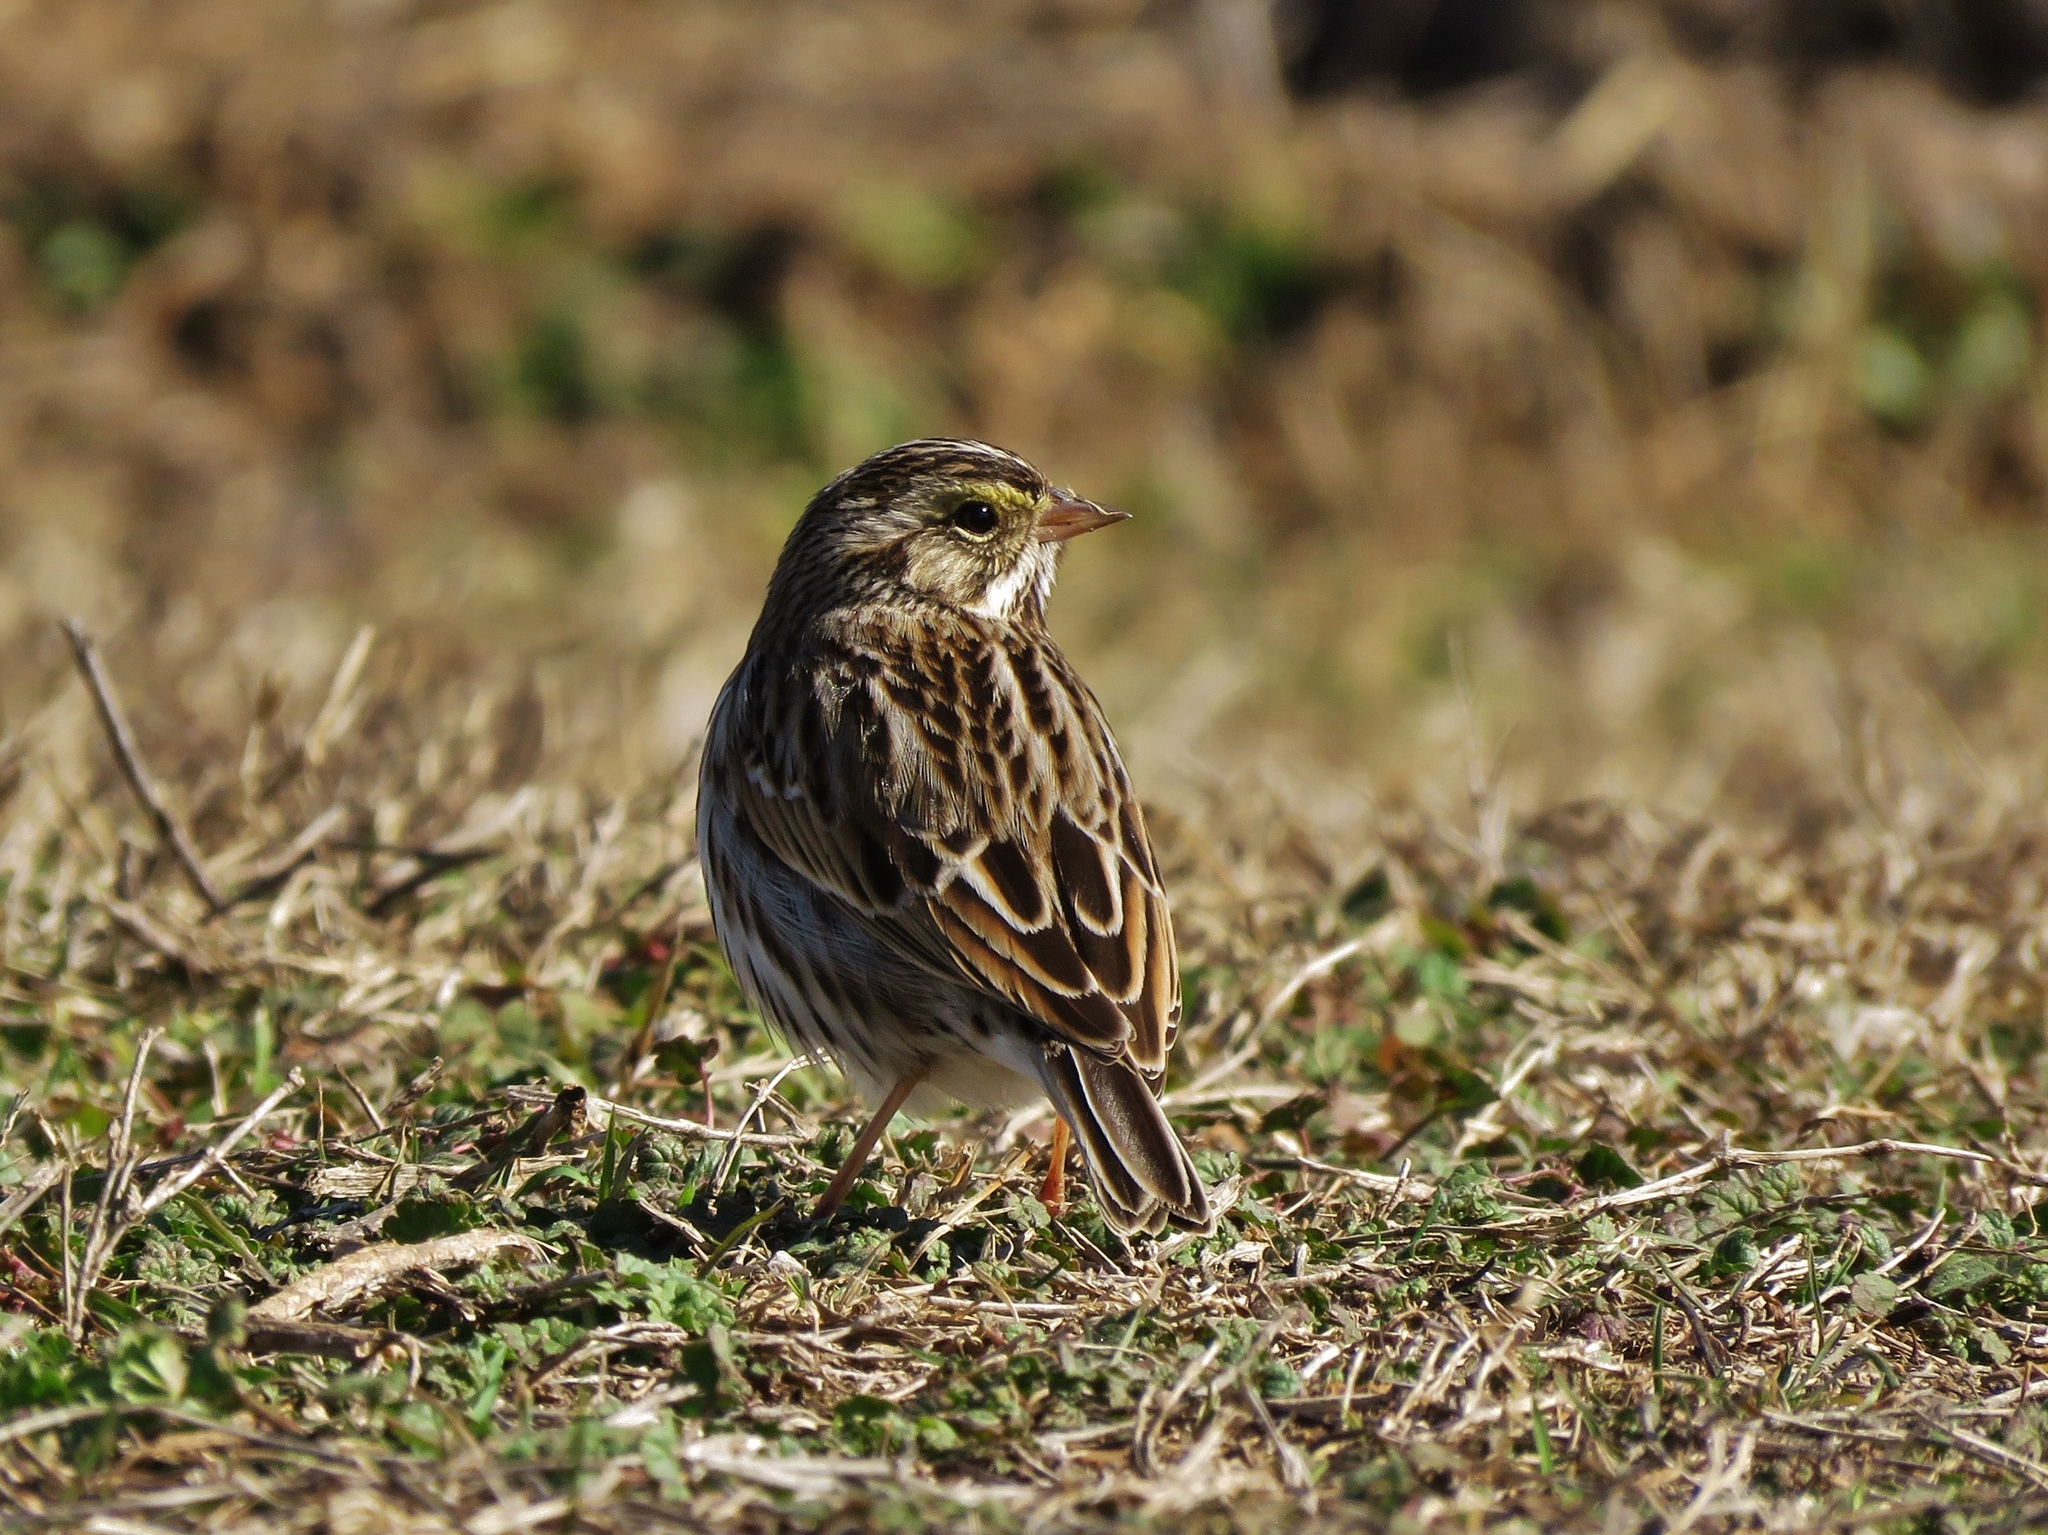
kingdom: Animalia
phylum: Chordata
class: Aves
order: Passeriformes
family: Passerellidae
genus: Passerculus
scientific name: Passerculus sandwichensis
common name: Savannah sparrow
